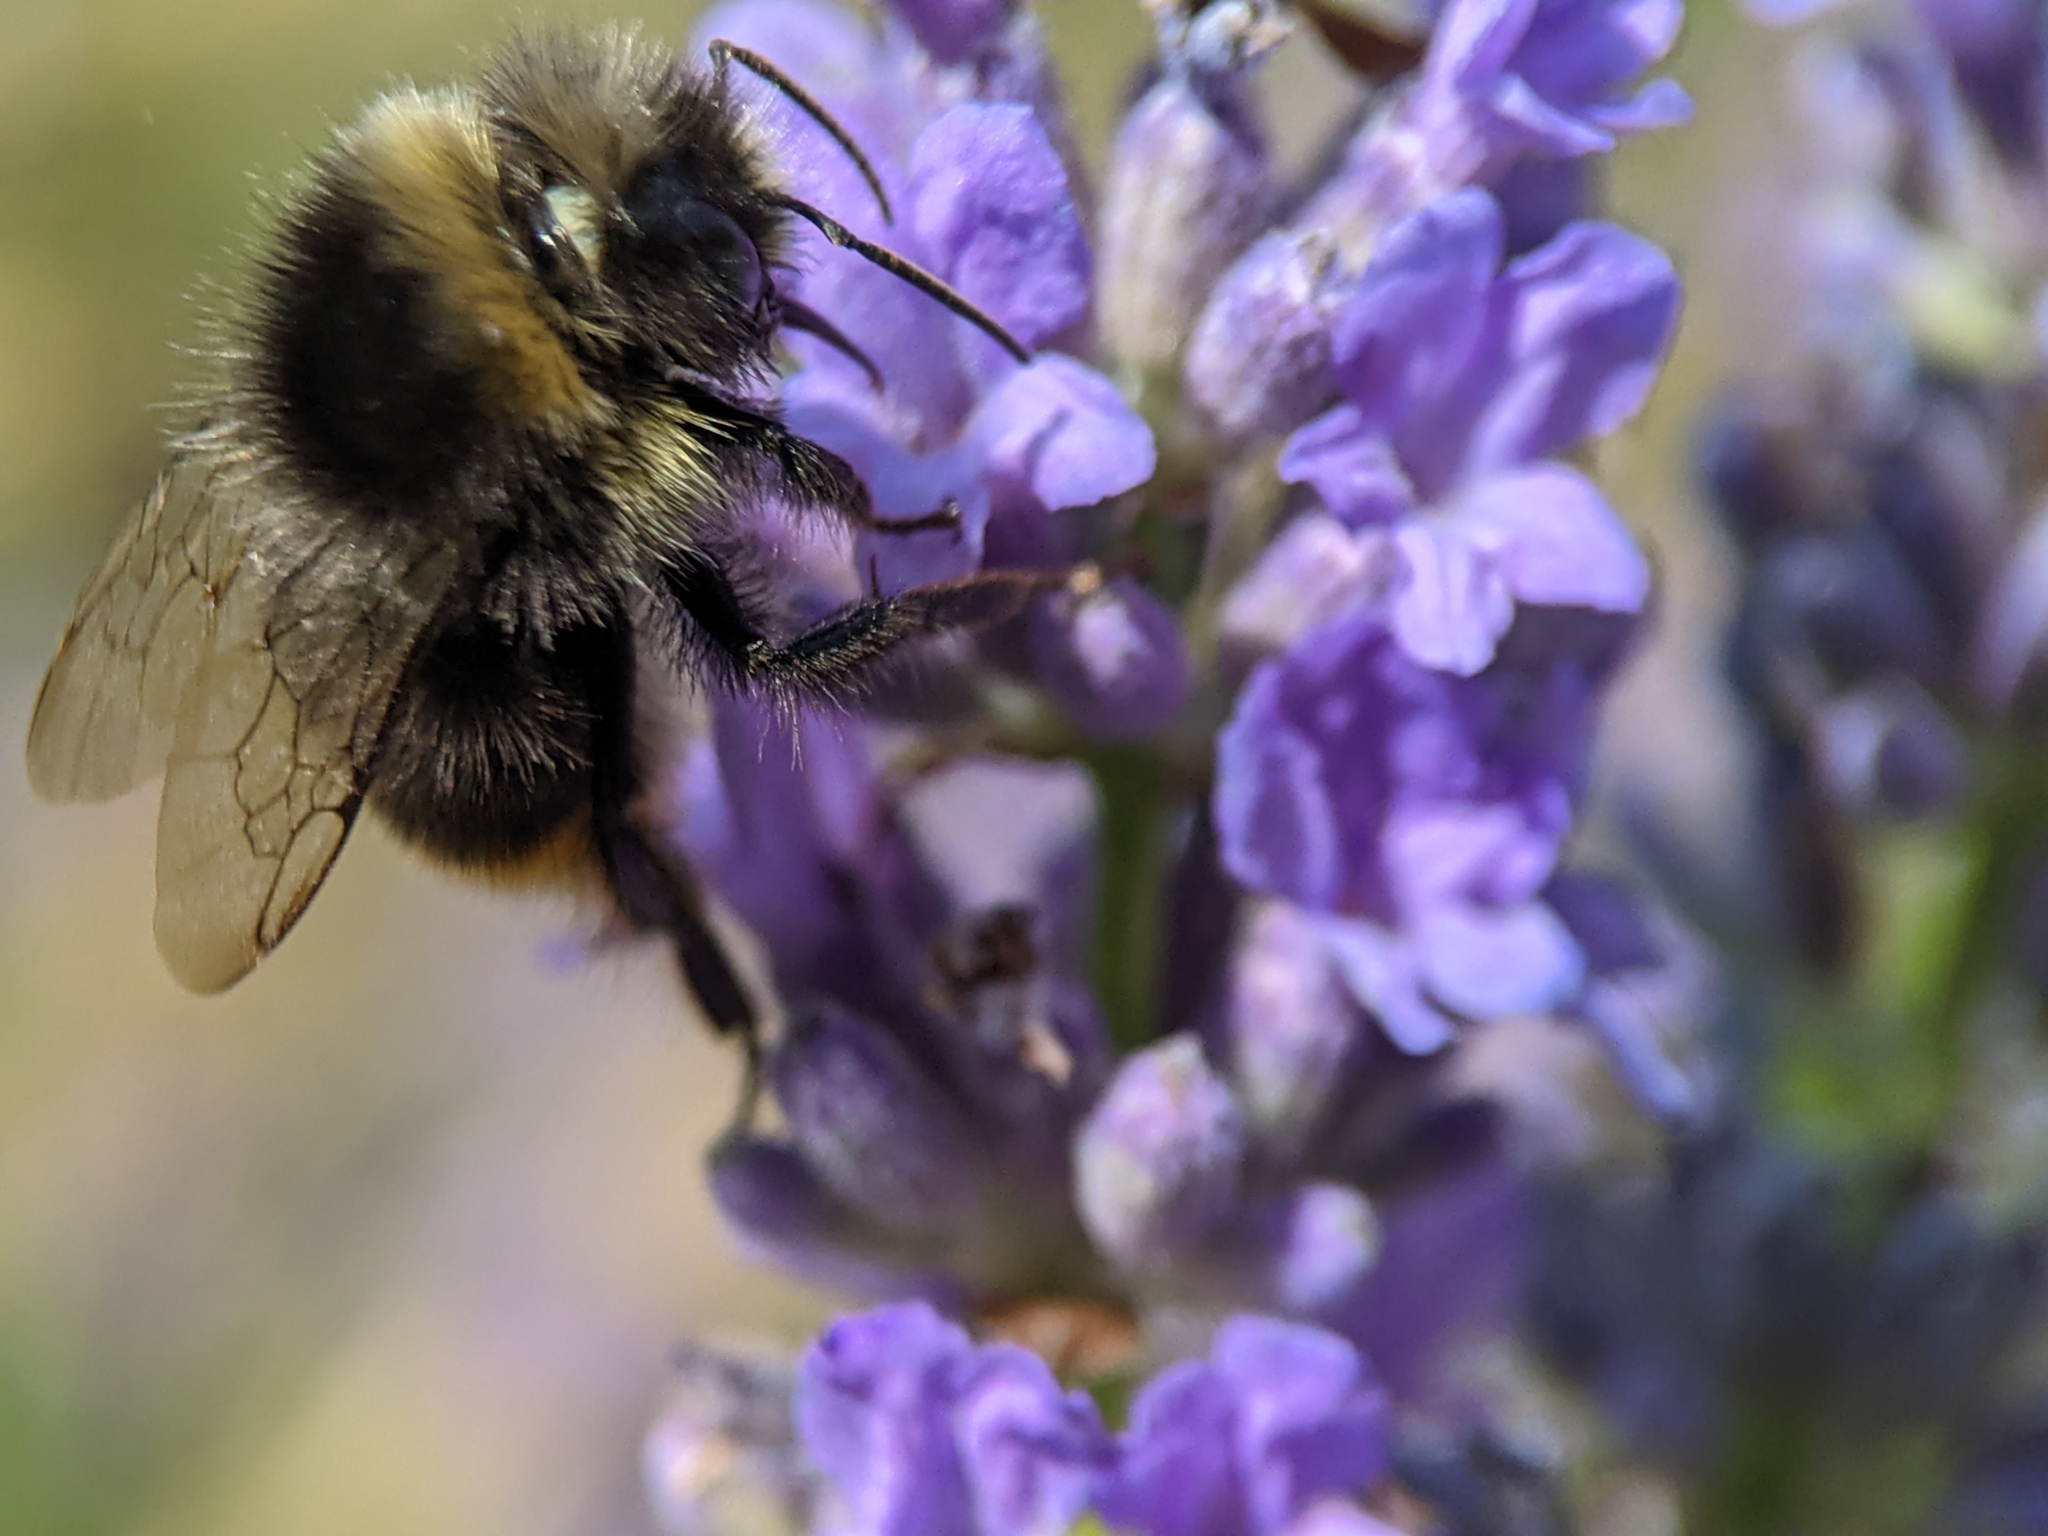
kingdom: Animalia
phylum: Arthropoda
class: Insecta
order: Hymenoptera
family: Apidae
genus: Bombus
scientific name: Bombus lapidarius
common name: Large red-tailed humble-bee
